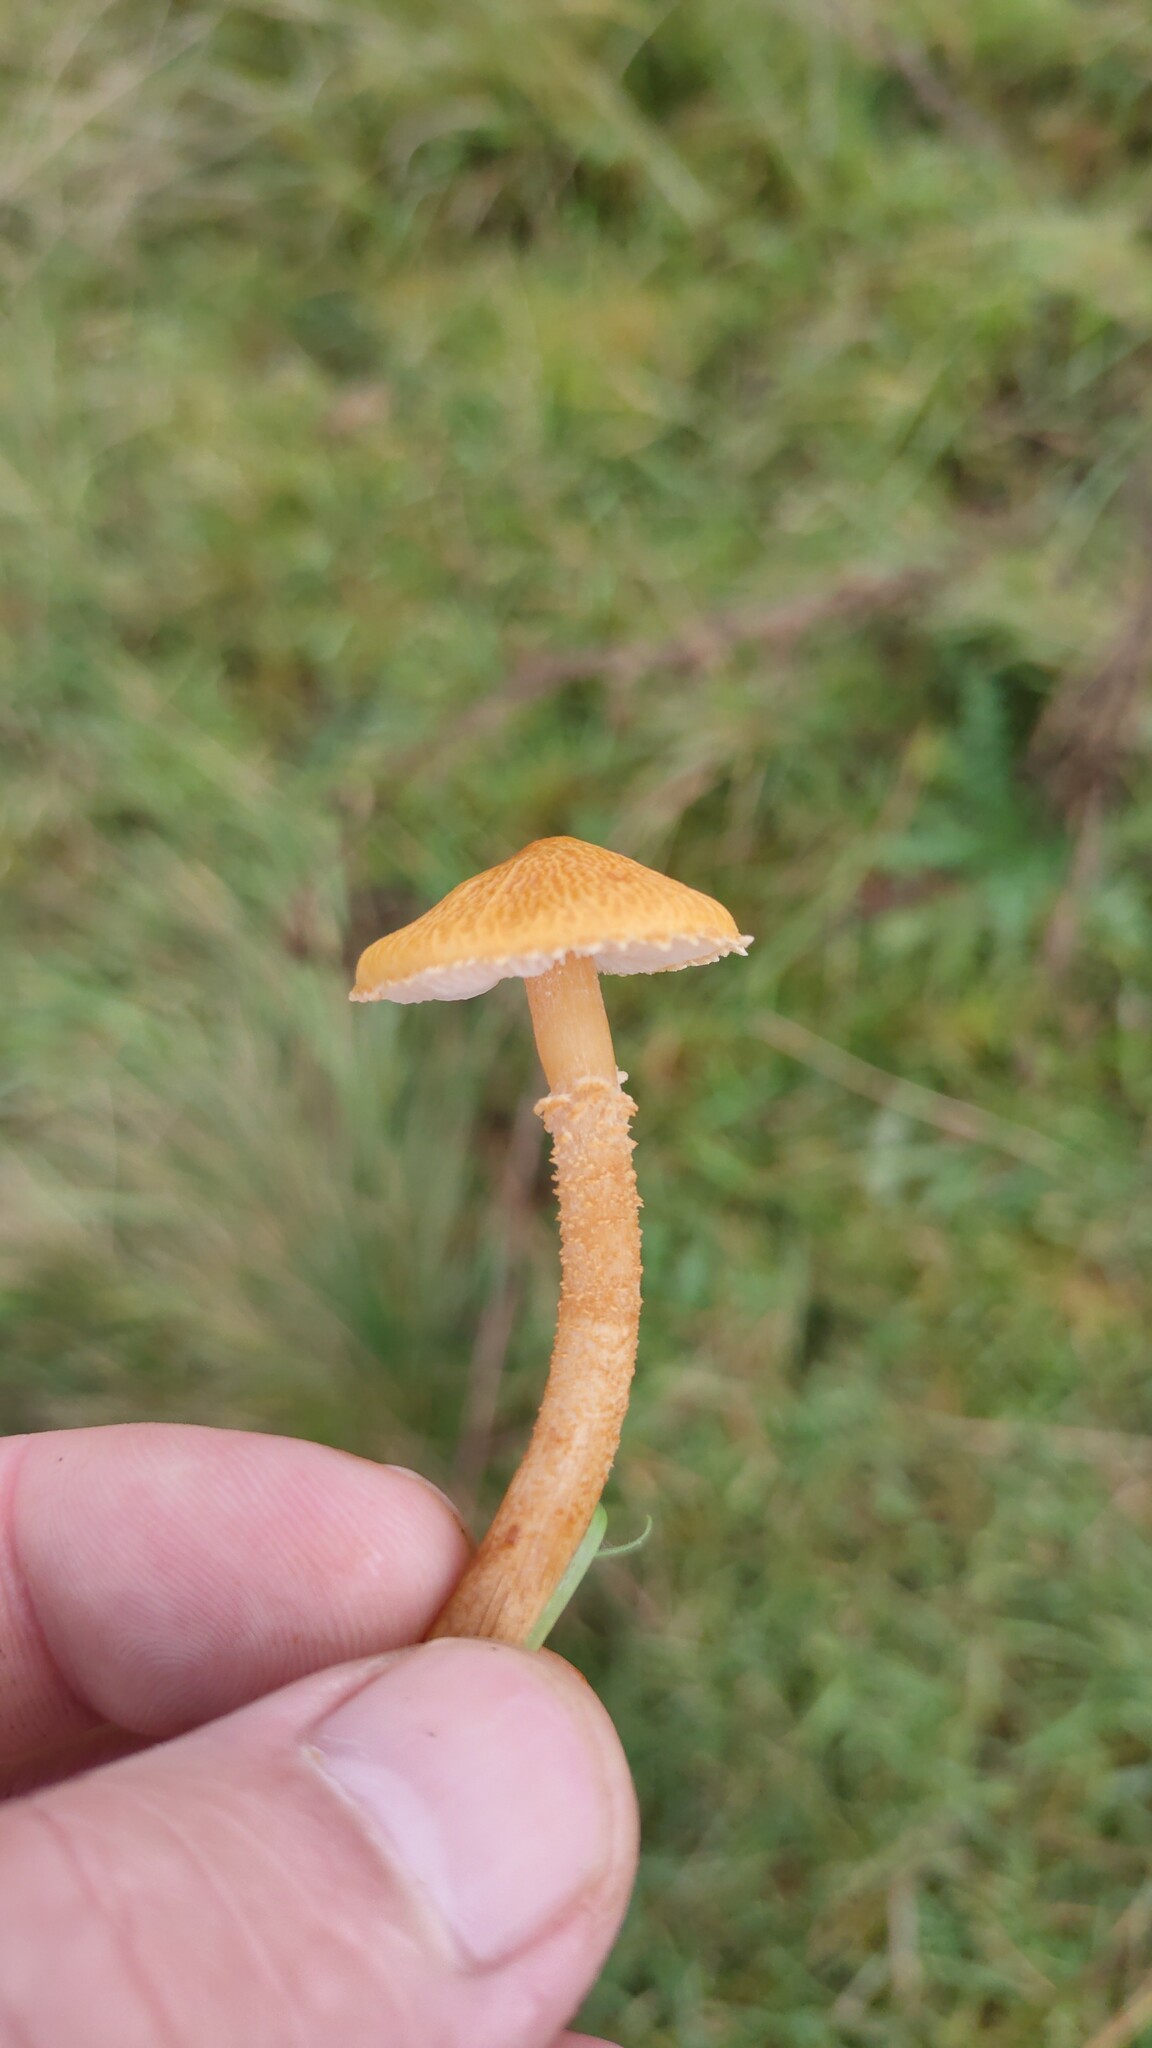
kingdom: Fungi
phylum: Basidiomycota
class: Agaricomycetes
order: Agaricales
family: Tricholomataceae
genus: Cystoderma
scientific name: Cystoderma amianthinum
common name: Earthy powdercap
